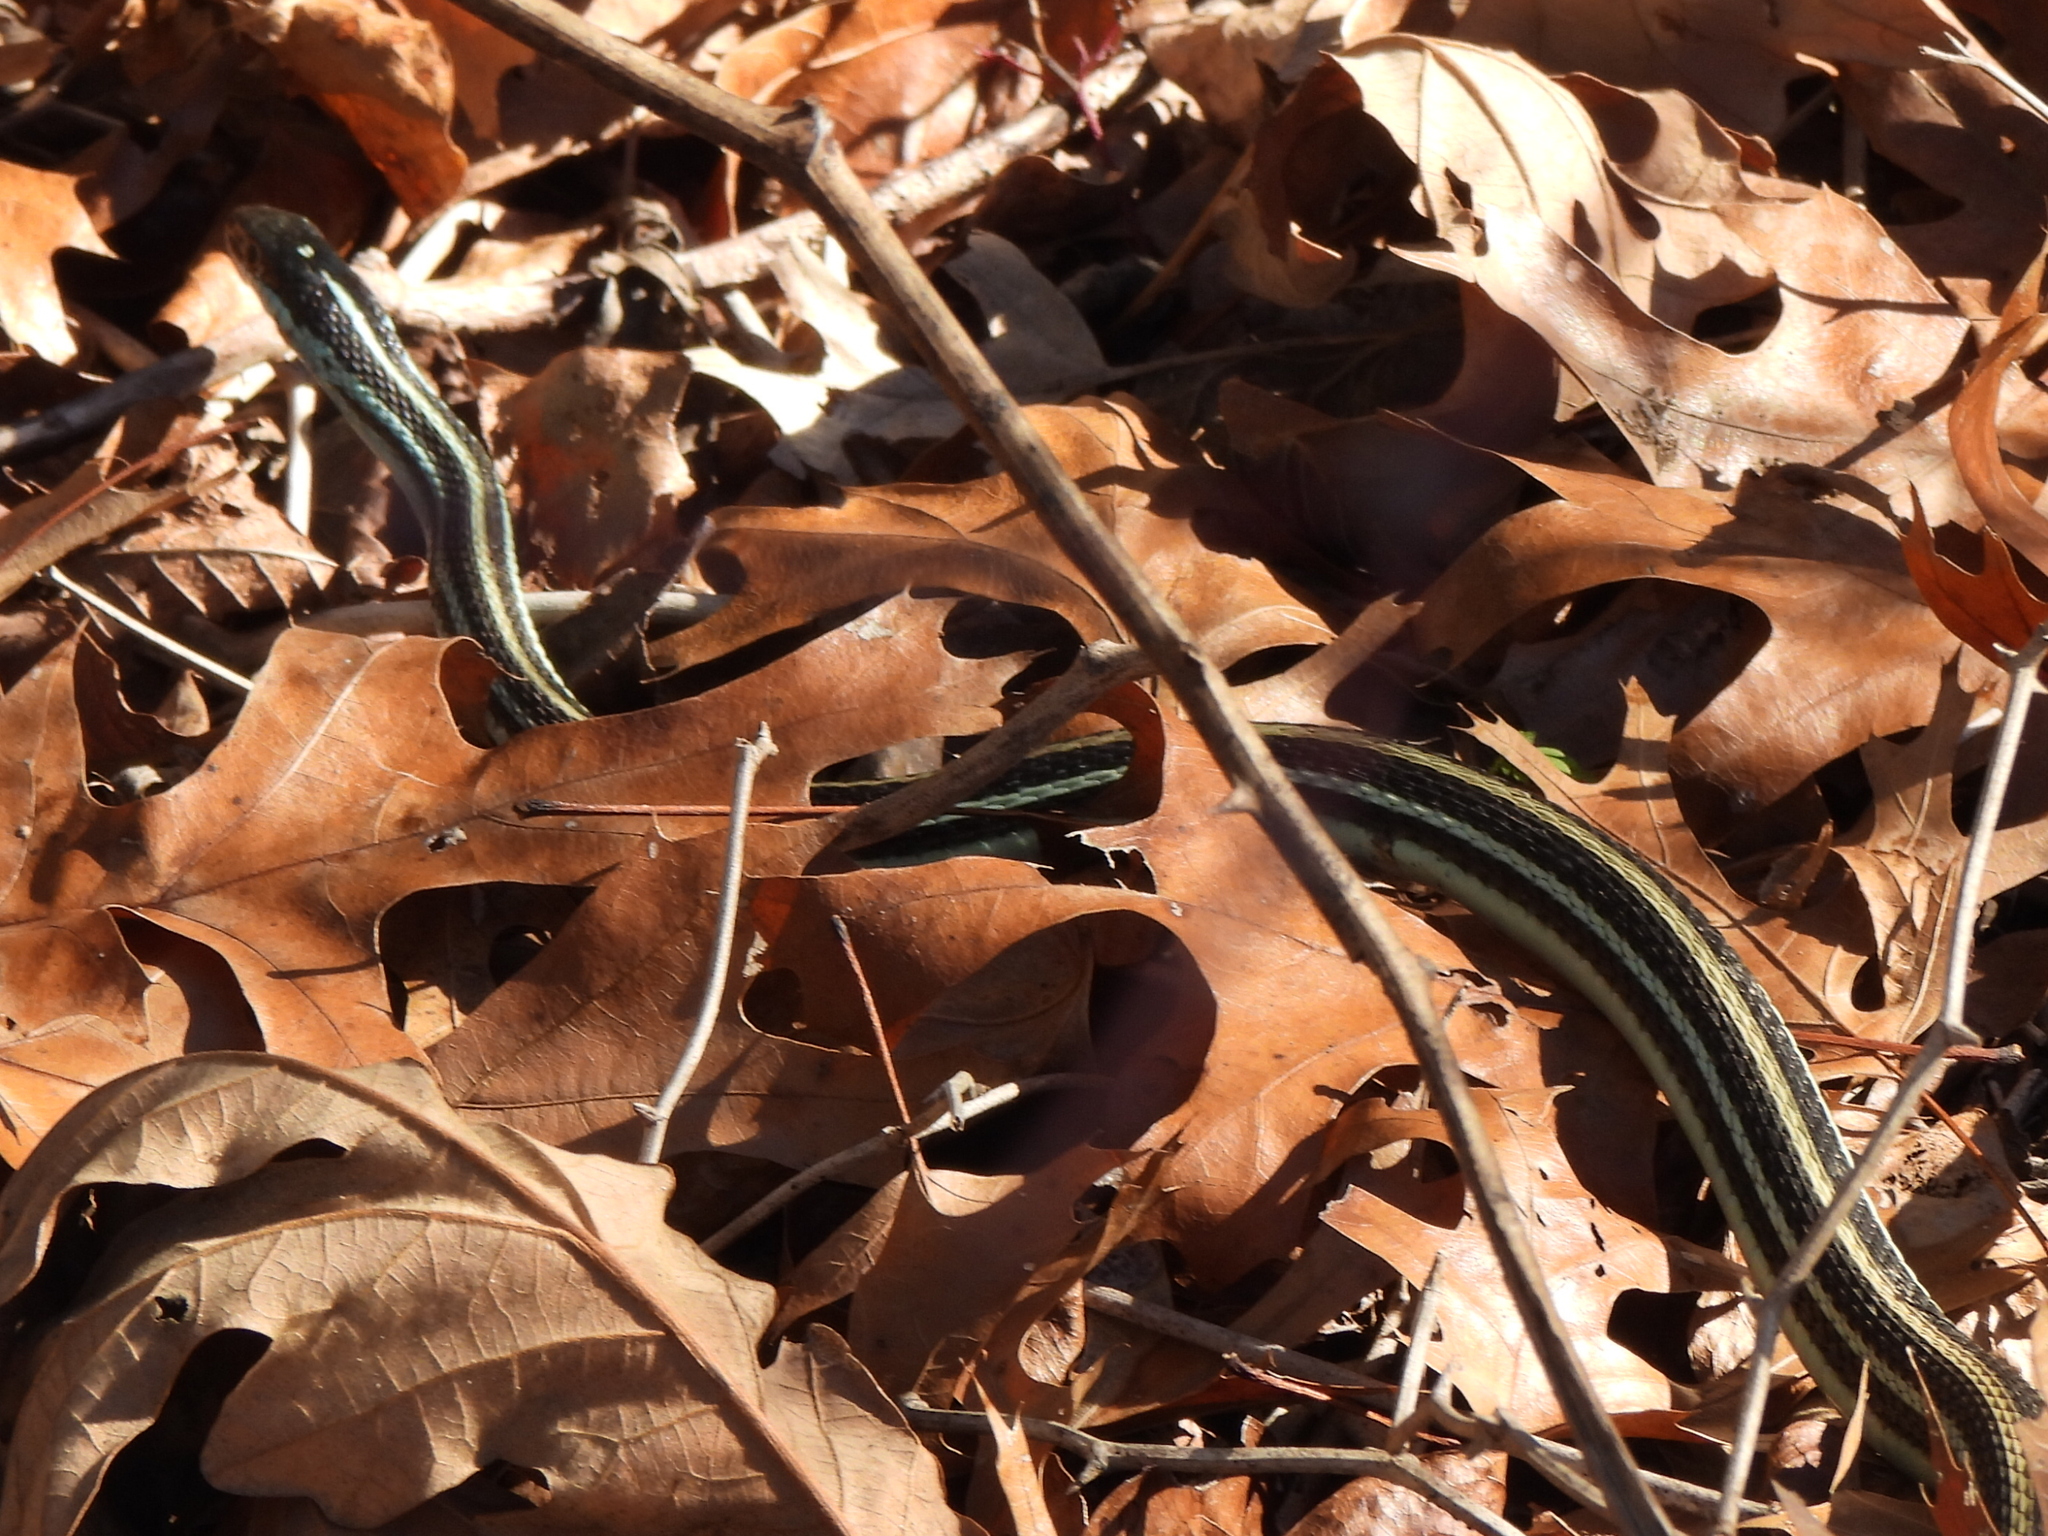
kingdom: Animalia
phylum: Chordata
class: Squamata
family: Colubridae
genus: Thamnophis
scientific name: Thamnophis proximus
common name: Western ribbon snake
